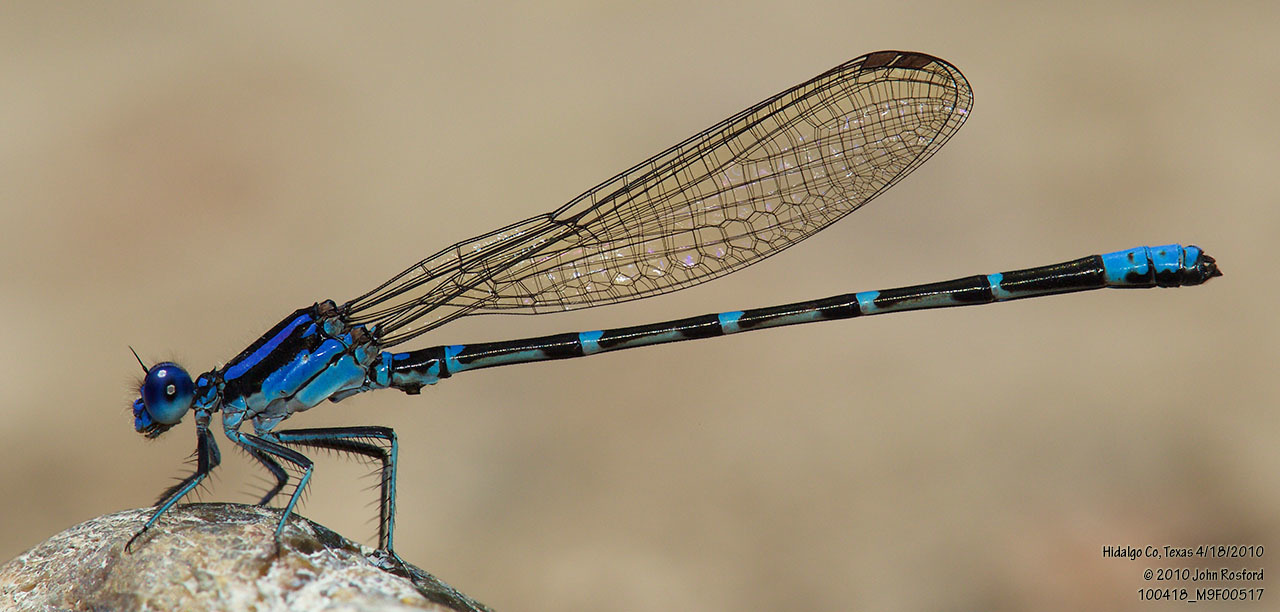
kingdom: Animalia
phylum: Arthropoda
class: Insecta
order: Odonata
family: Coenagrionidae
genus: Argia
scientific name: Argia sedula
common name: Blue-ringed dancer
